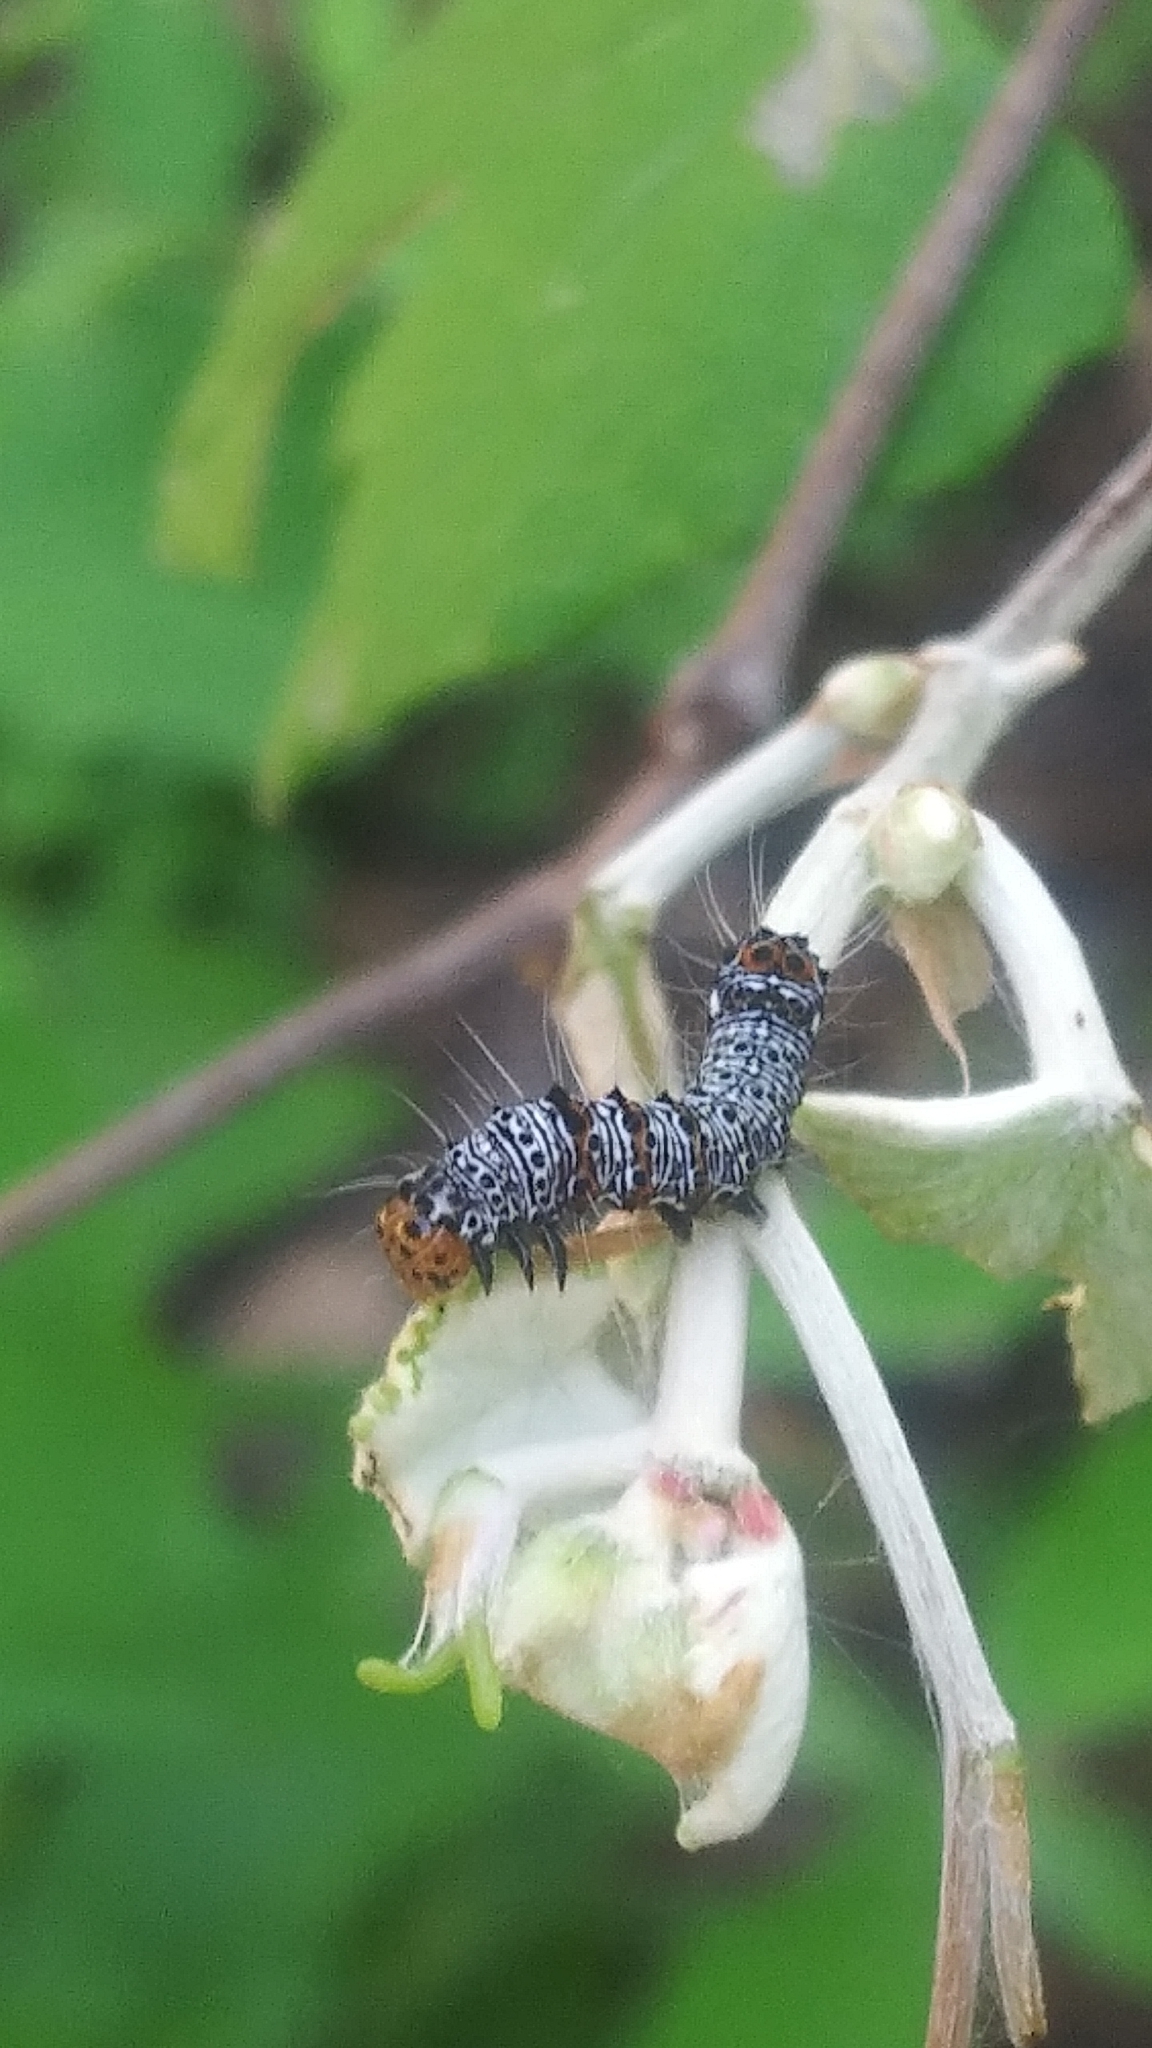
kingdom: Animalia
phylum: Arthropoda
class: Insecta
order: Lepidoptera
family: Noctuidae
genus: Alypia
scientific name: Alypia octomaculata
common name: Eight-spotted forester
